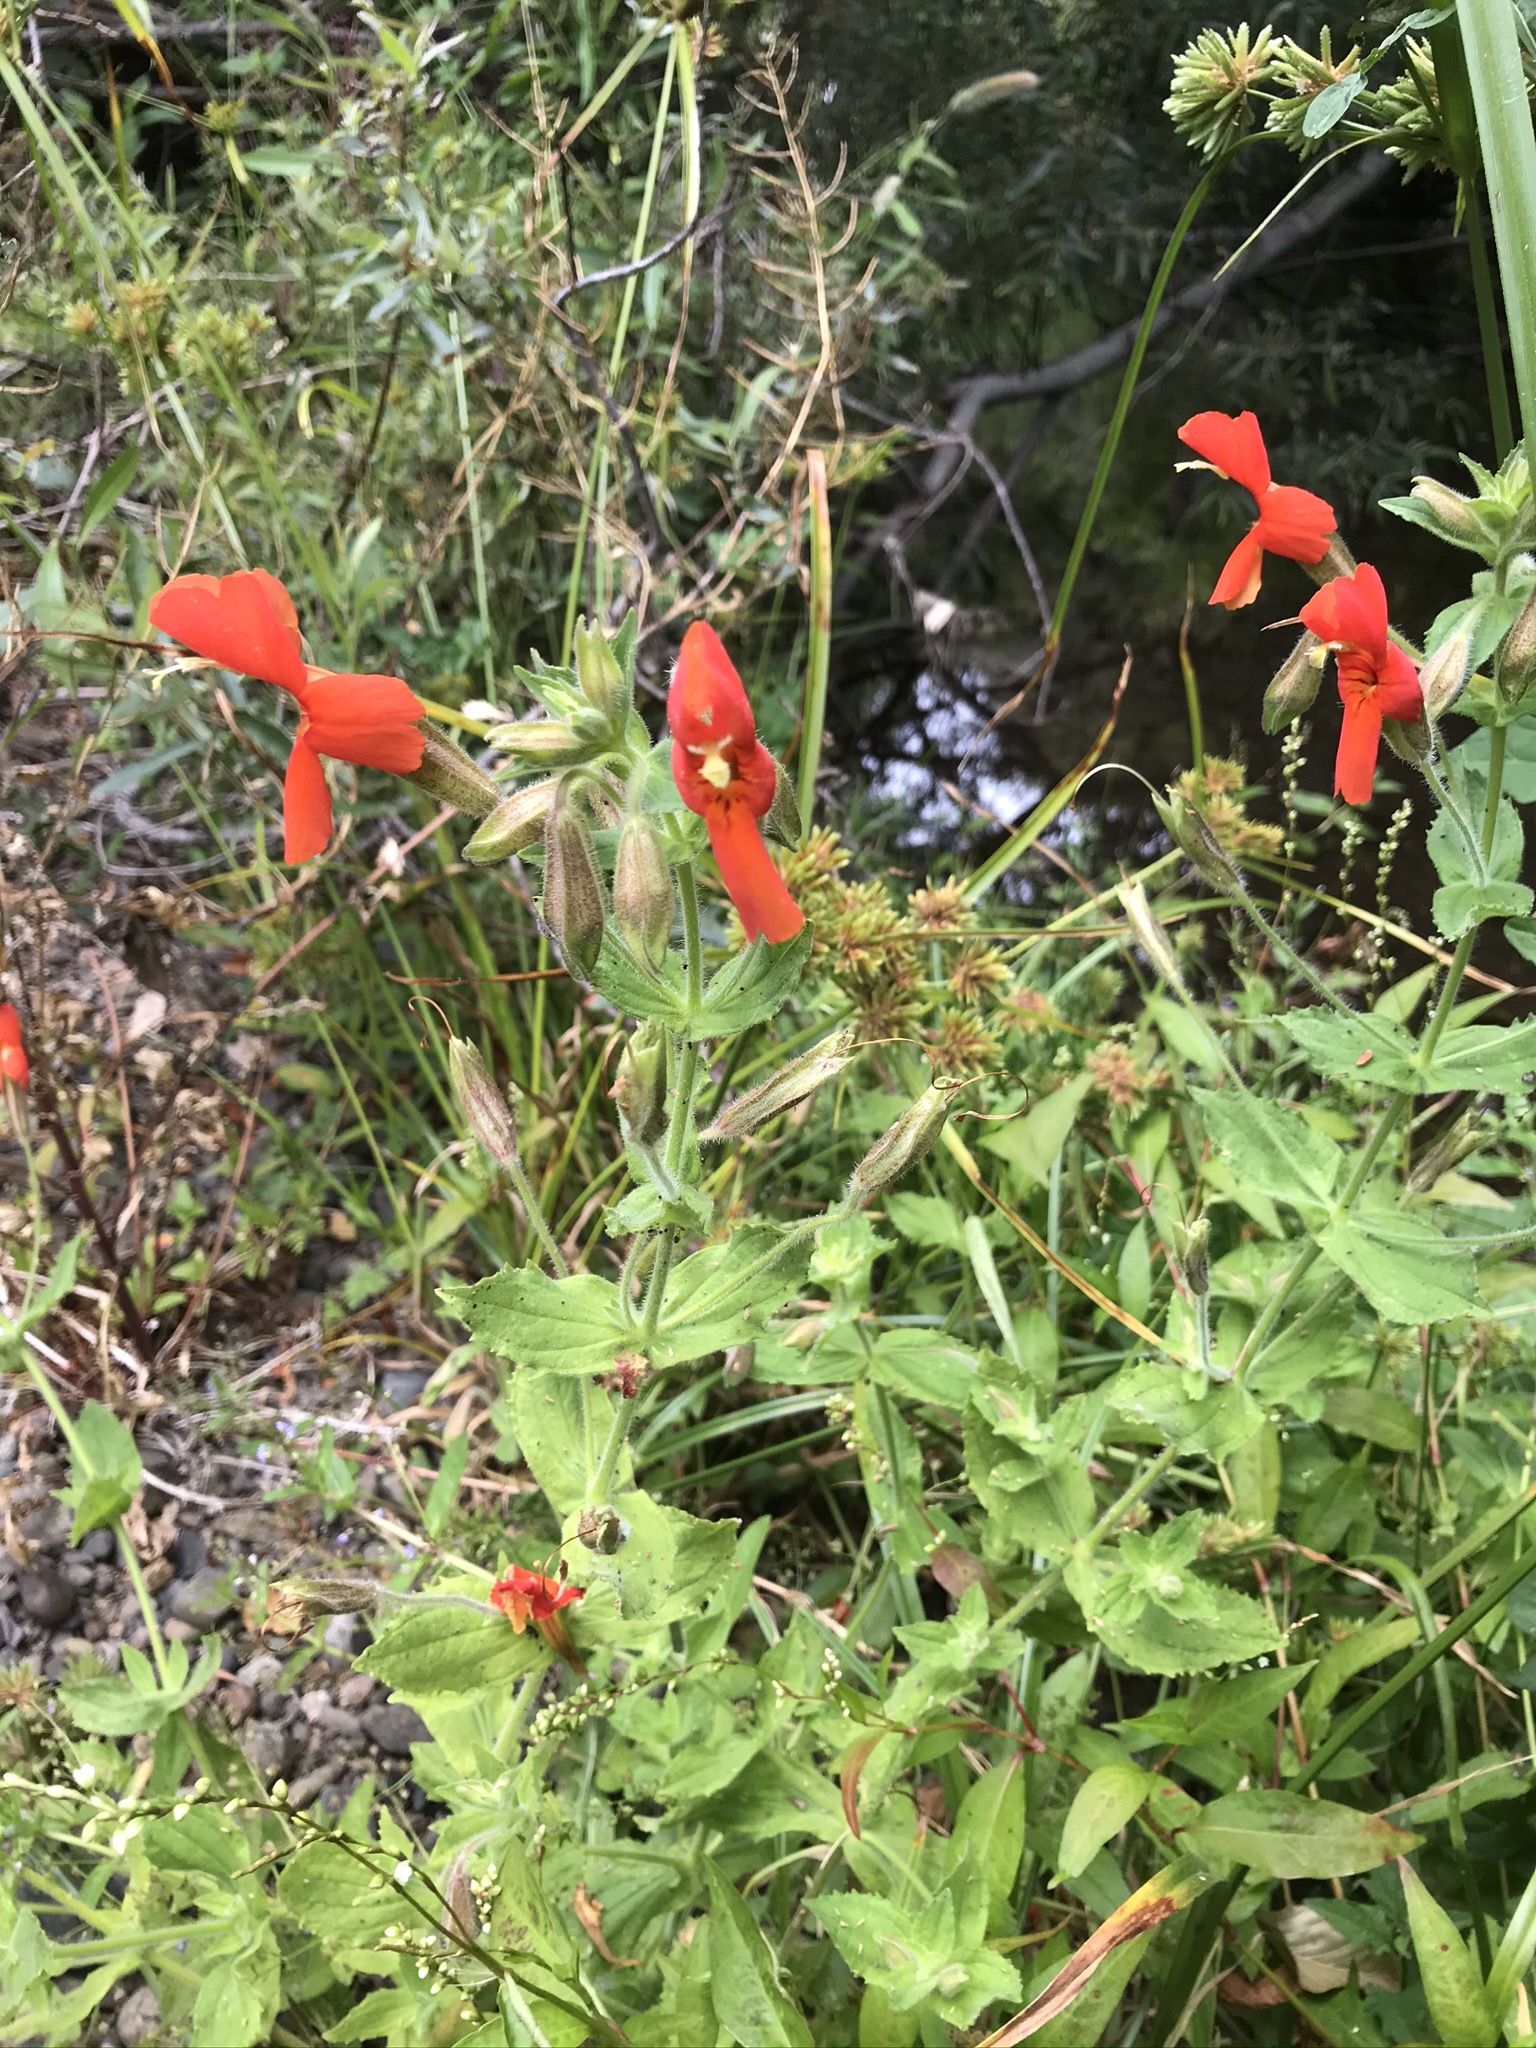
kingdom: Plantae
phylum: Tracheophyta
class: Magnoliopsida
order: Lamiales
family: Phrymaceae
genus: Erythranthe
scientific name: Erythranthe cardinalis
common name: Scarlet monkey-flower
